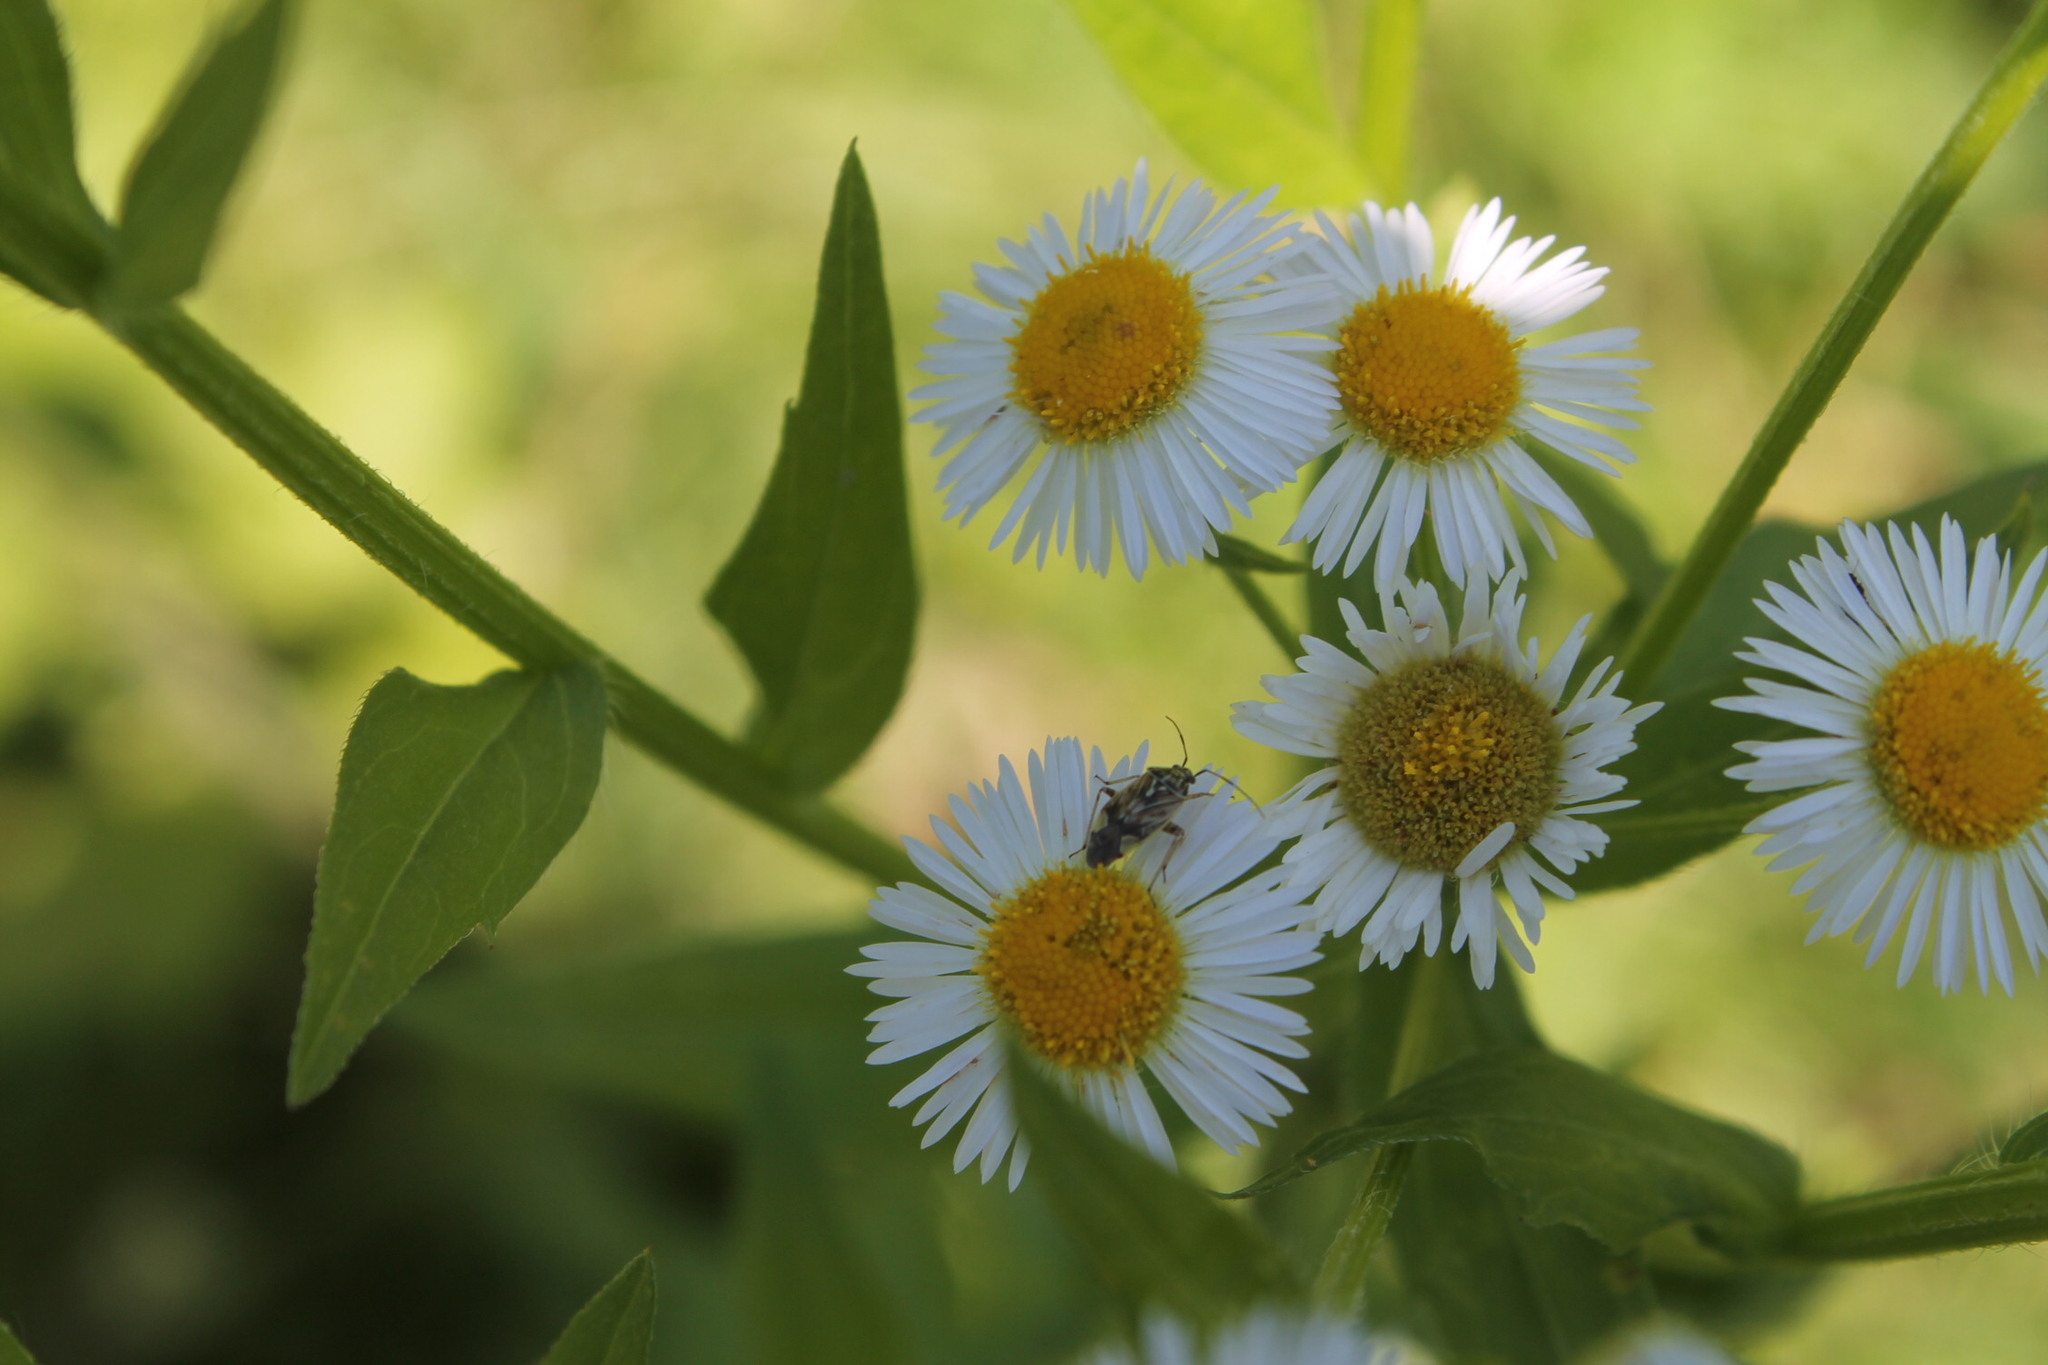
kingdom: Animalia
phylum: Arthropoda
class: Insecta
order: Hemiptera
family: Miridae
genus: Lygus
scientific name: Lygus lineolaris
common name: North american tarnished plant bug
